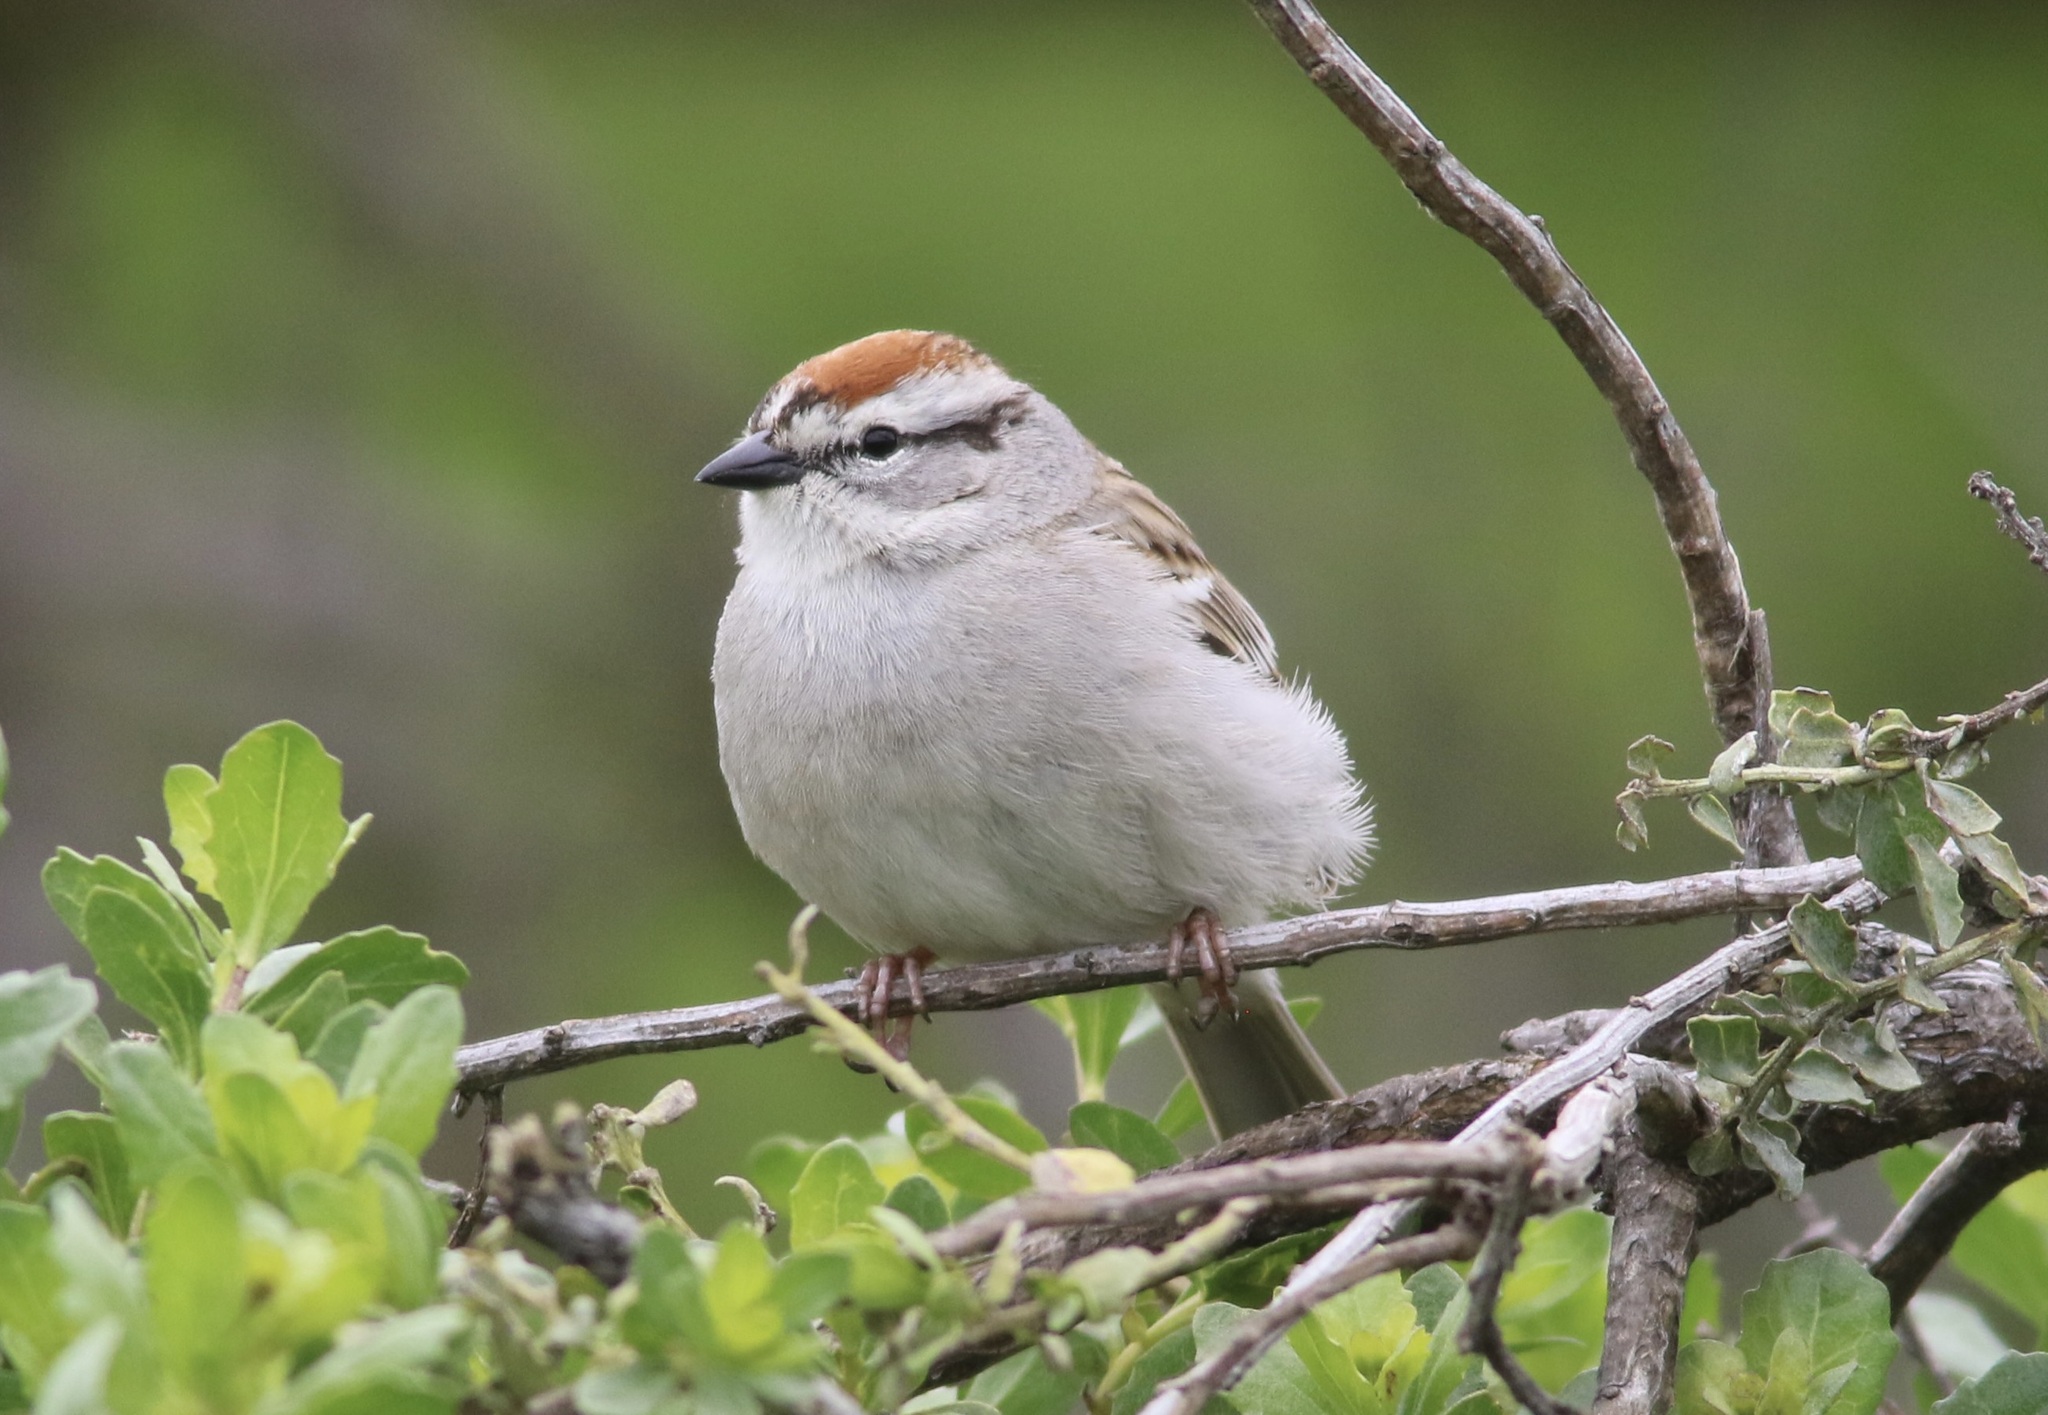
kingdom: Animalia
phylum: Chordata
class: Aves
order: Passeriformes
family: Passerellidae
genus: Spizella
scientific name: Spizella passerina
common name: Chipping sparrow
